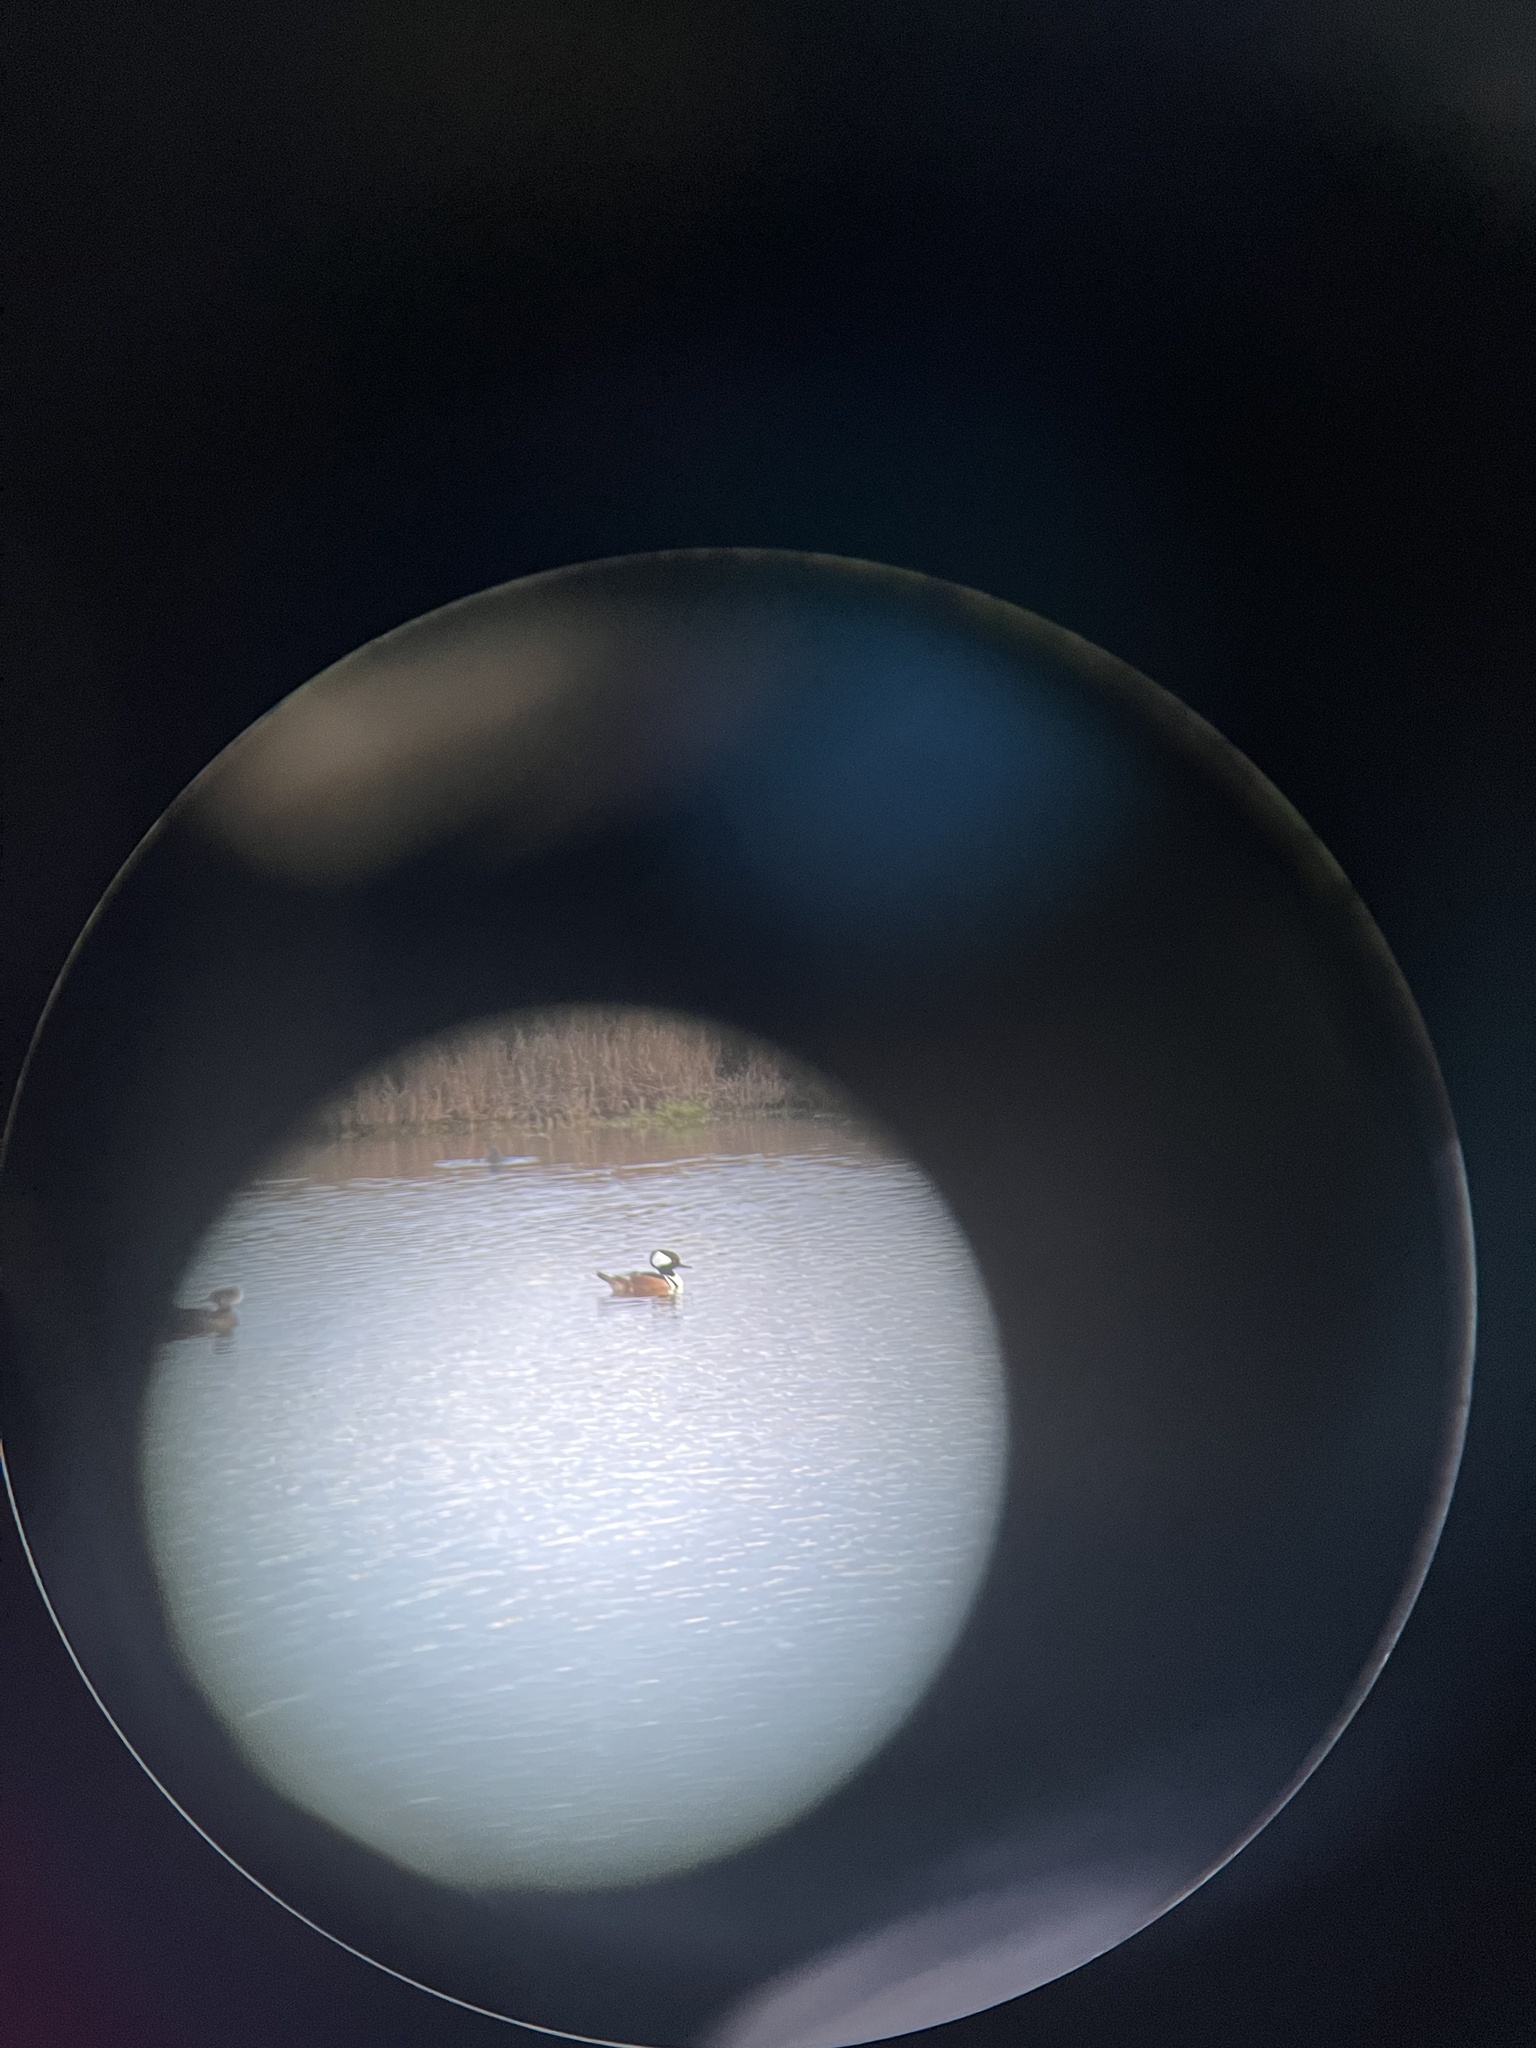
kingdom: Animalia
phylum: Chordata
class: Aves
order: Anseriformes
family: Anatidae
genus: Lophodytes
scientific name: Lophodytes cucullatus
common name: Hooded merganser
